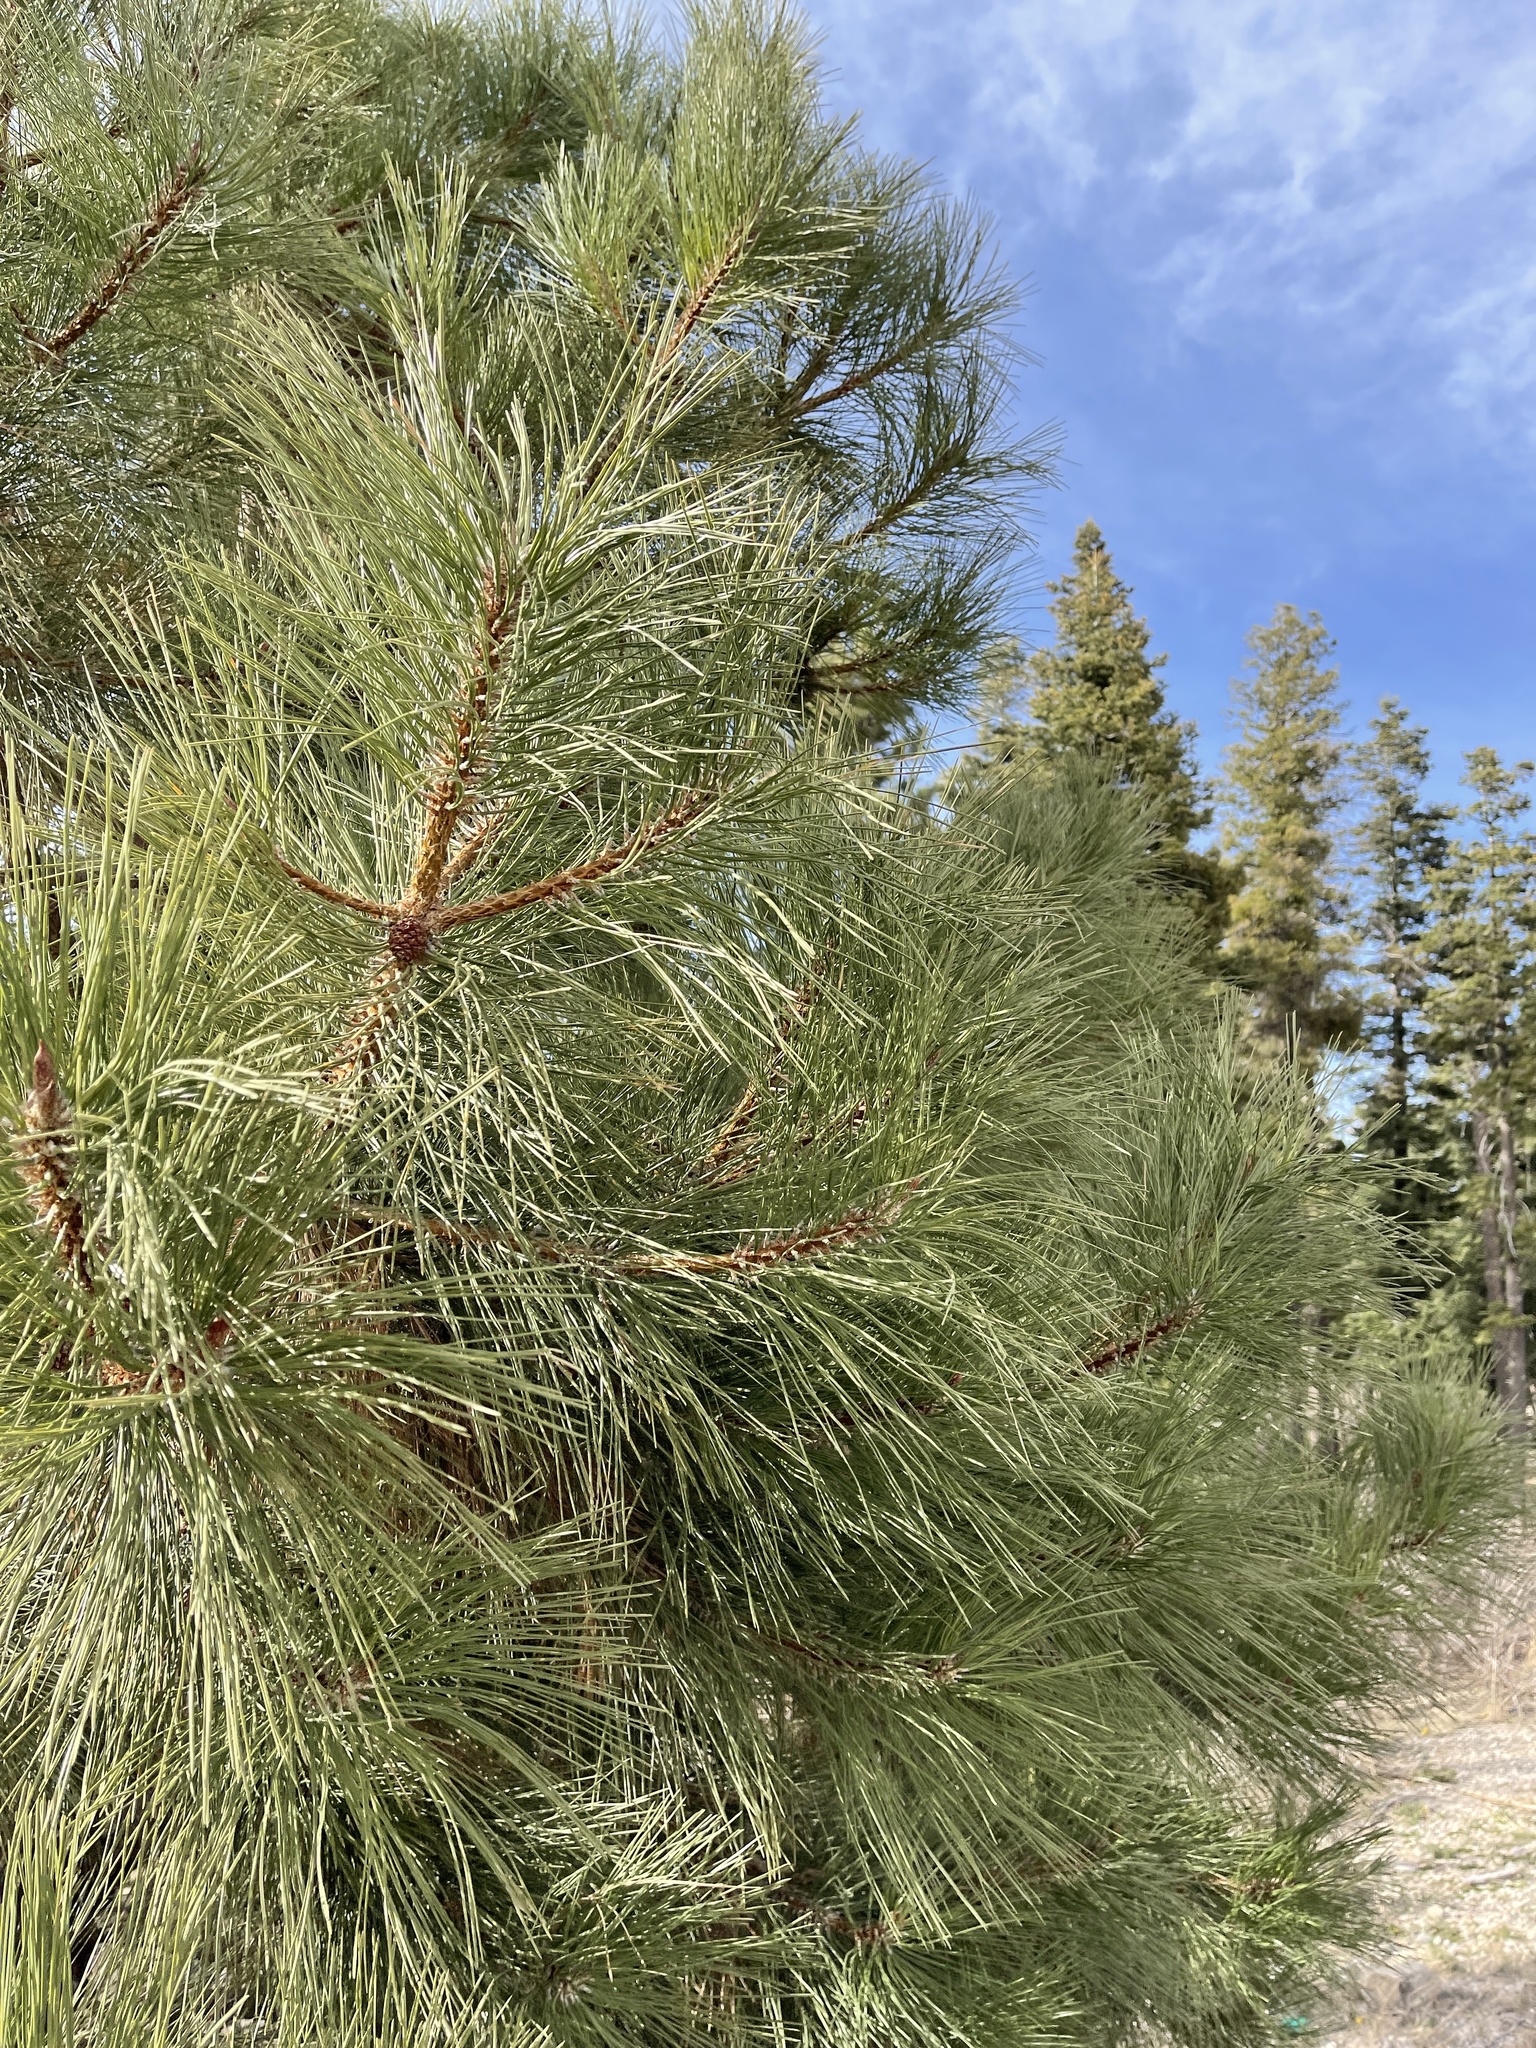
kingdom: Plantae
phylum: Tracheophyta
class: Pinopsida
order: Pinales
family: Pinaceae
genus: Pinus
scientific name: Pinus ponderosa
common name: Western yellow-pine
